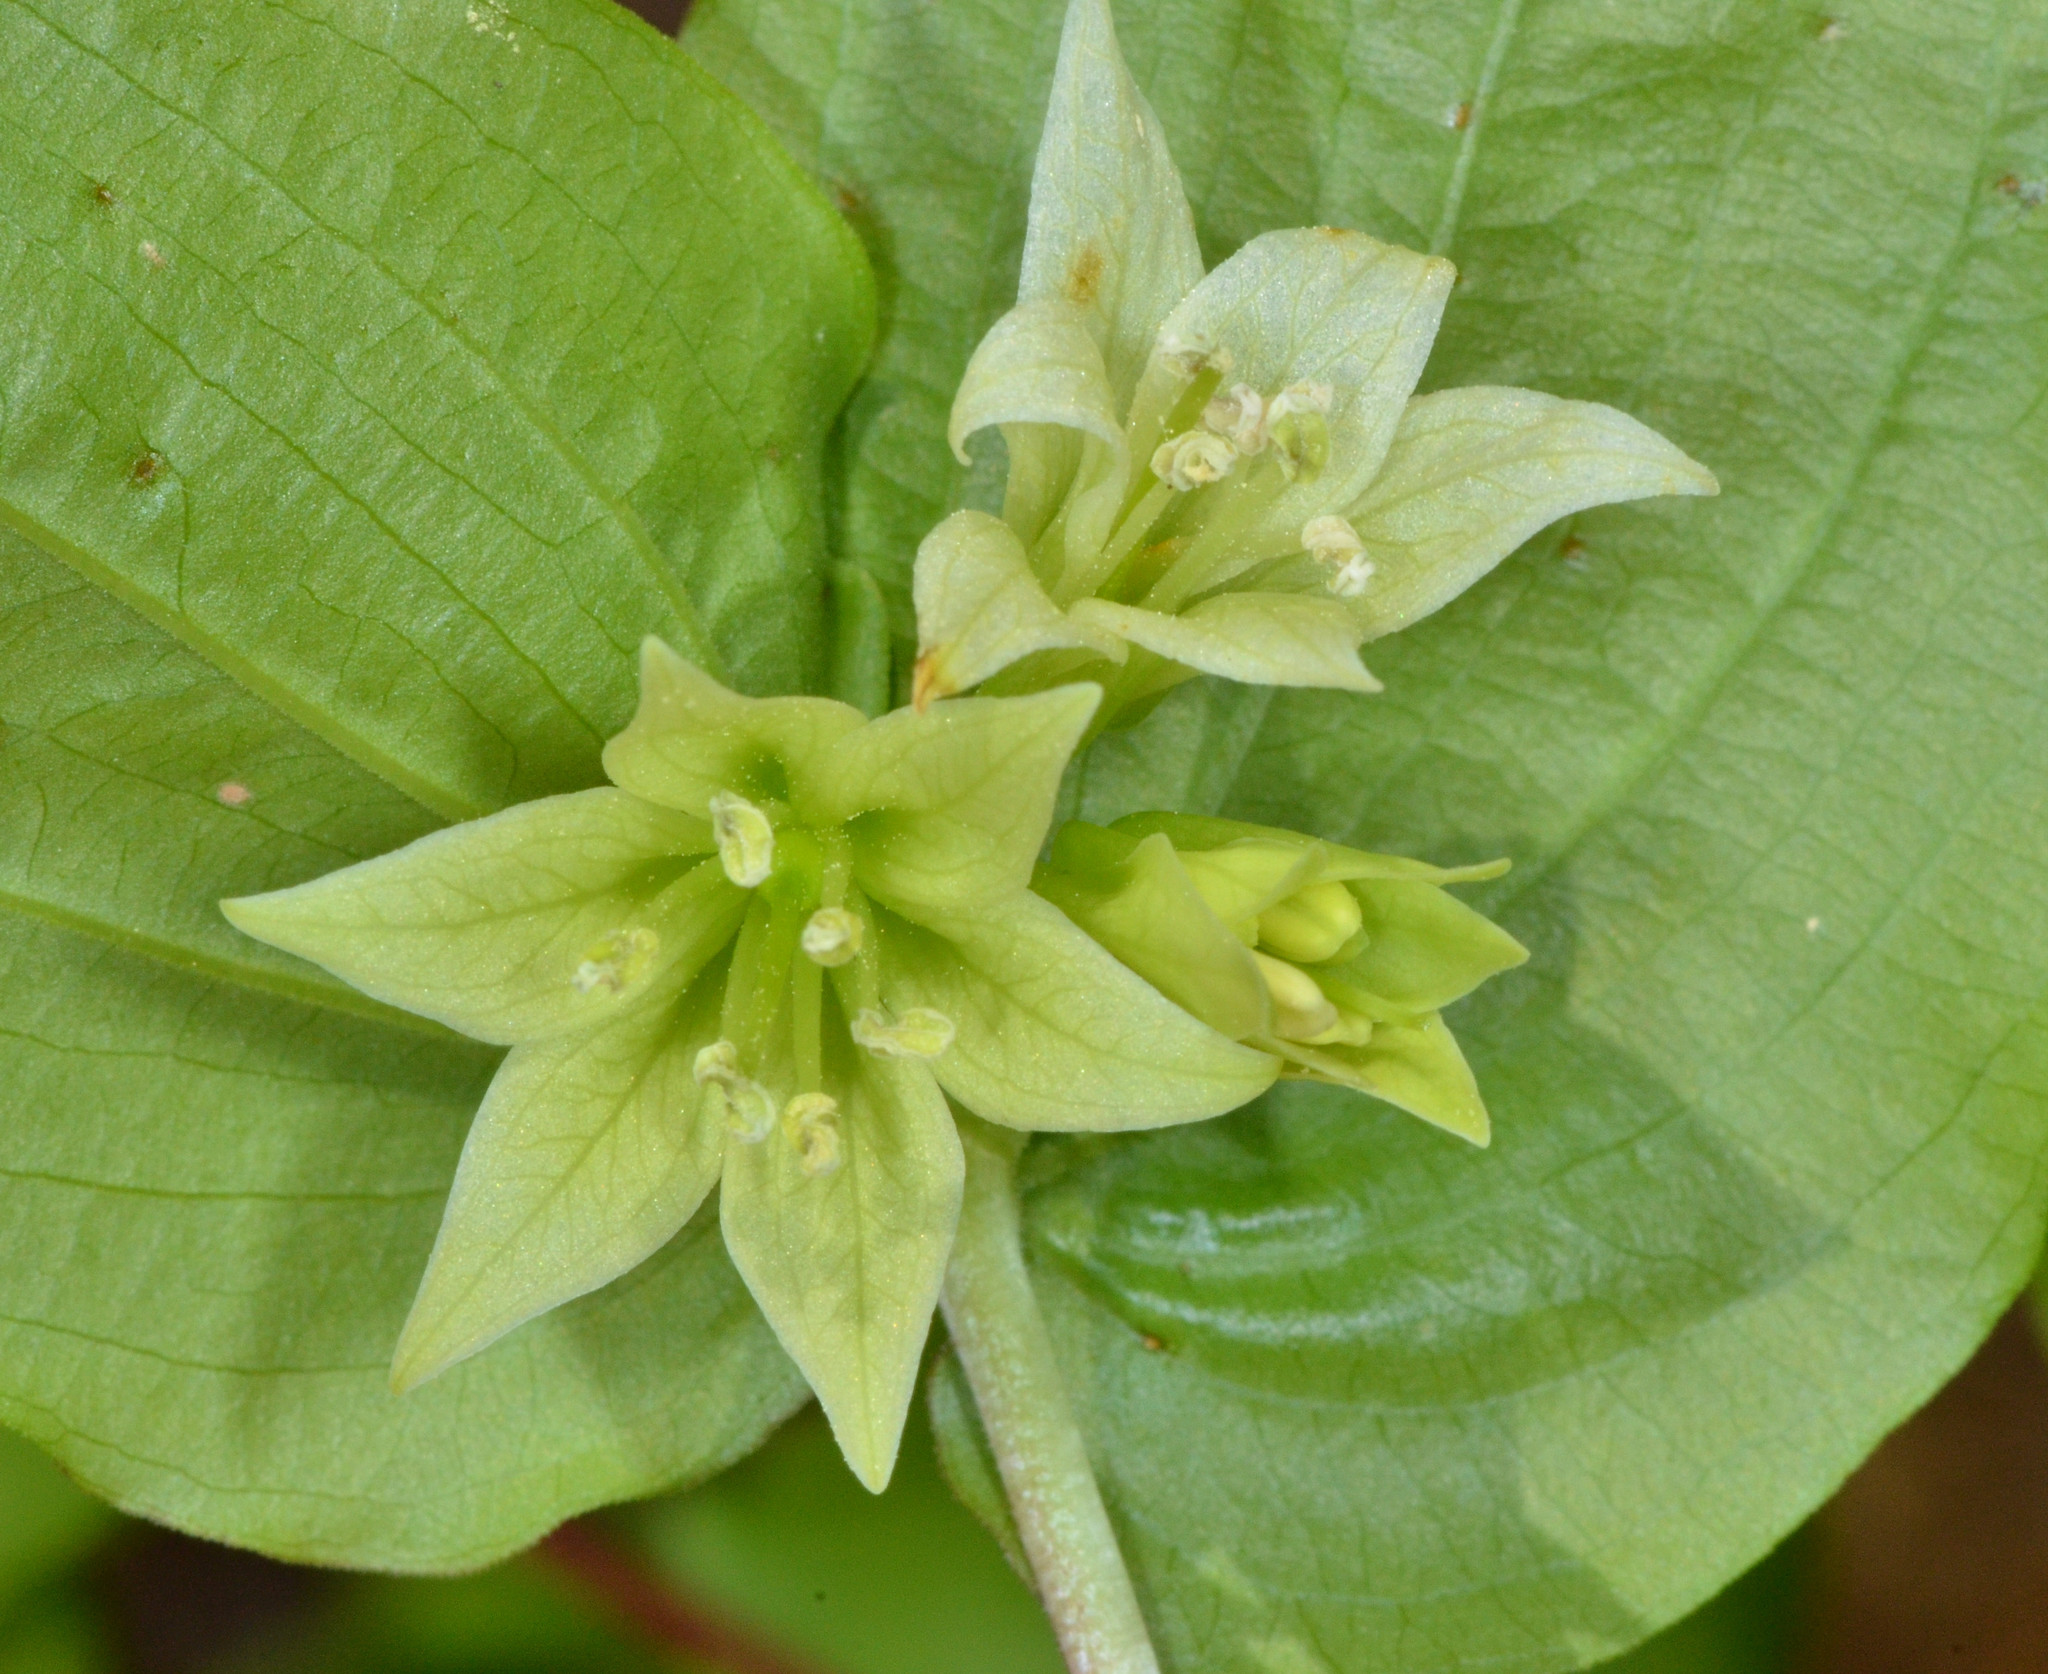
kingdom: Plantae
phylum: Tracheophyta
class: Liliopsida
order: Liliales
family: Liliaceae
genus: Prosartes
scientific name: Prosartes hookeri
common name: Fairy-bells
